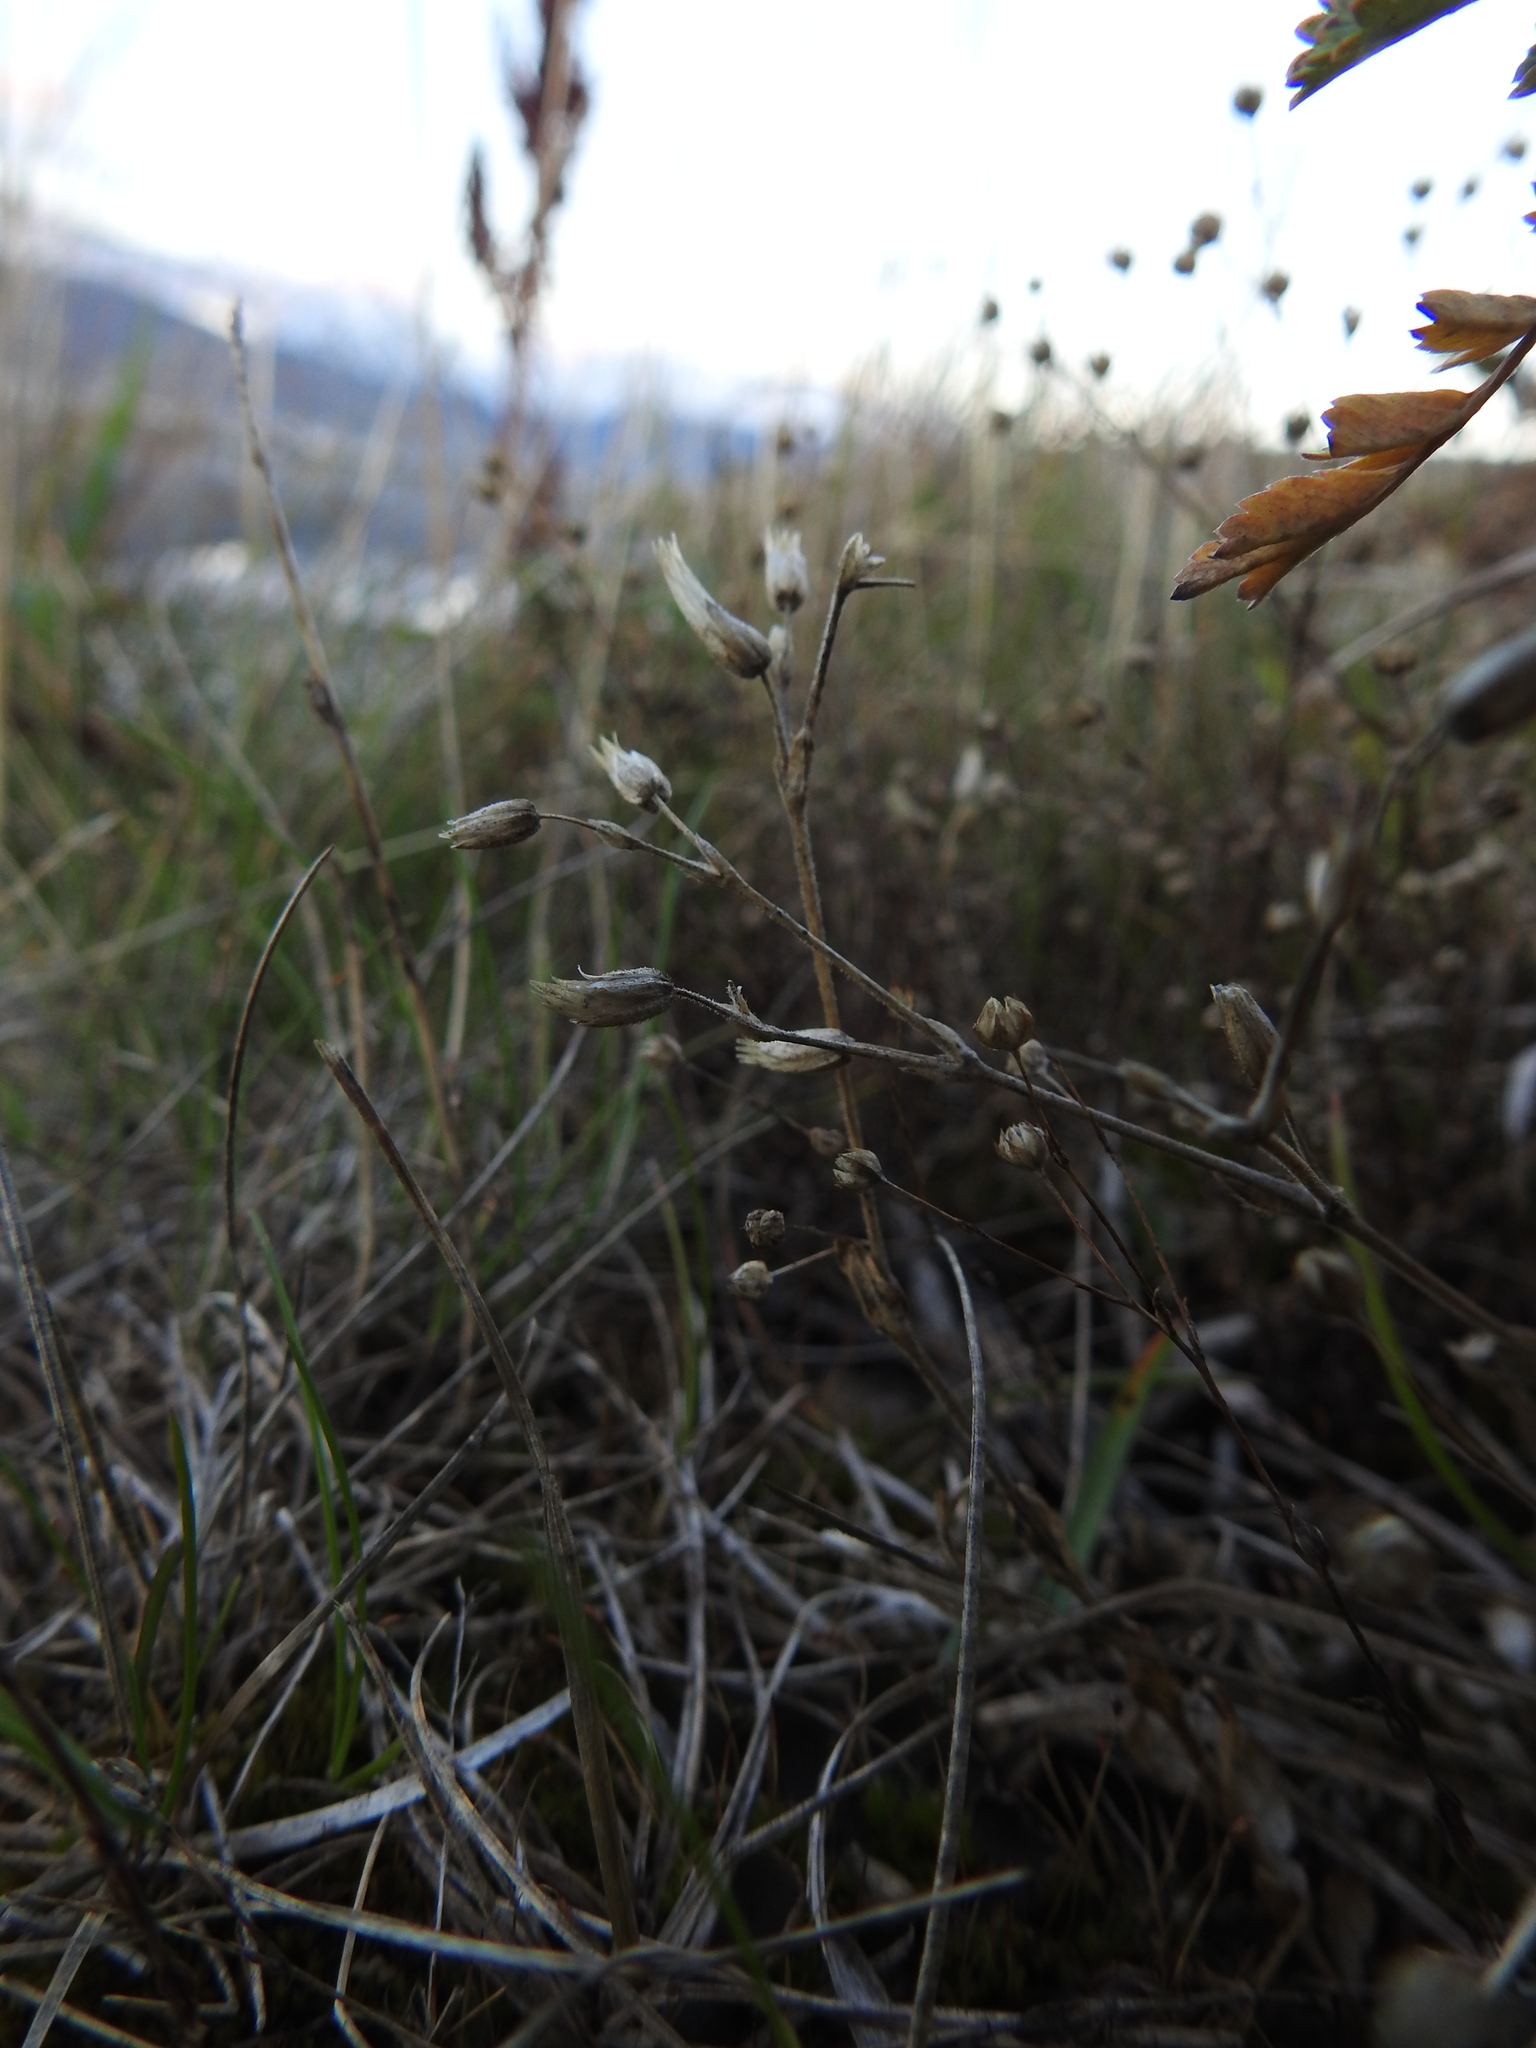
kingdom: Plantae
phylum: Tracheophyta
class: Magnoliopsida
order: Malpighiales
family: Linaceae
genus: Linum
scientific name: Linum catharticum
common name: Fairy flax
